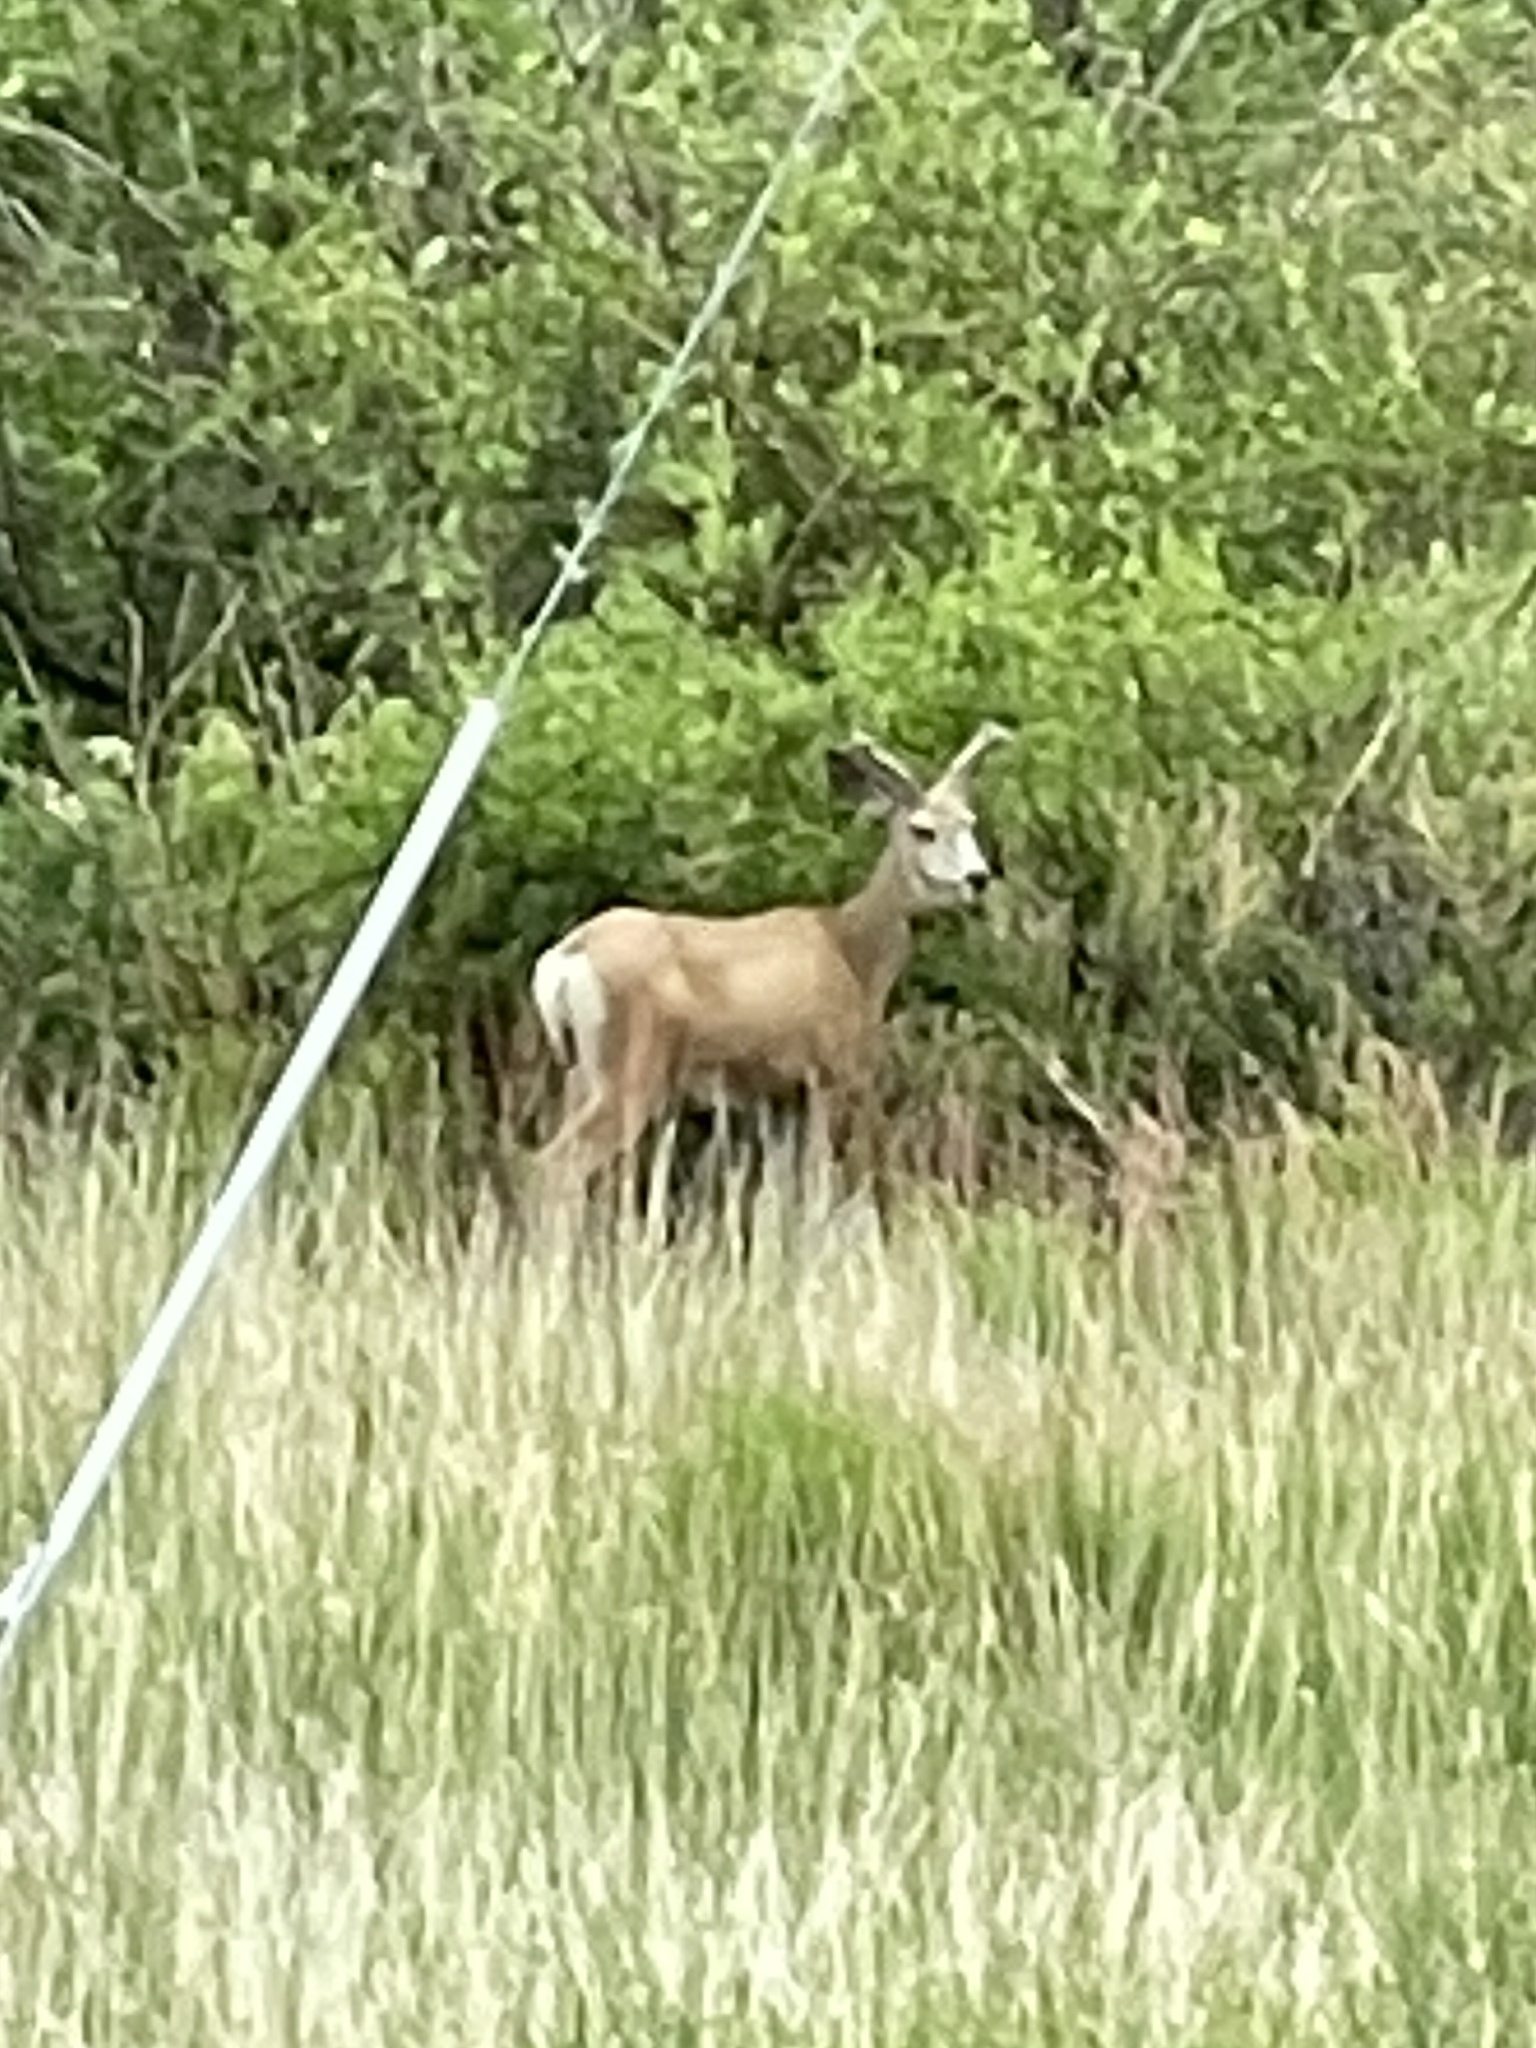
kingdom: Animalia
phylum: Chordata
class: Mammalia
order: Artiodactyla
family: Cervidae
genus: Odocoileus
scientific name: Odocoileus hemionus
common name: Mule deer
